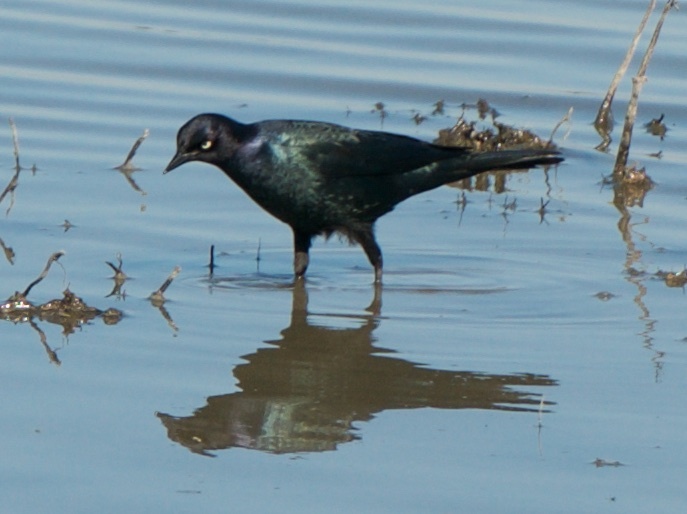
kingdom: Animalia
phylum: Chordata
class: Aves
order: Passeriformes
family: Icteridae
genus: Euphagus
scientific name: Euphagus cyanocephalus
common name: Brewer's blackbird
